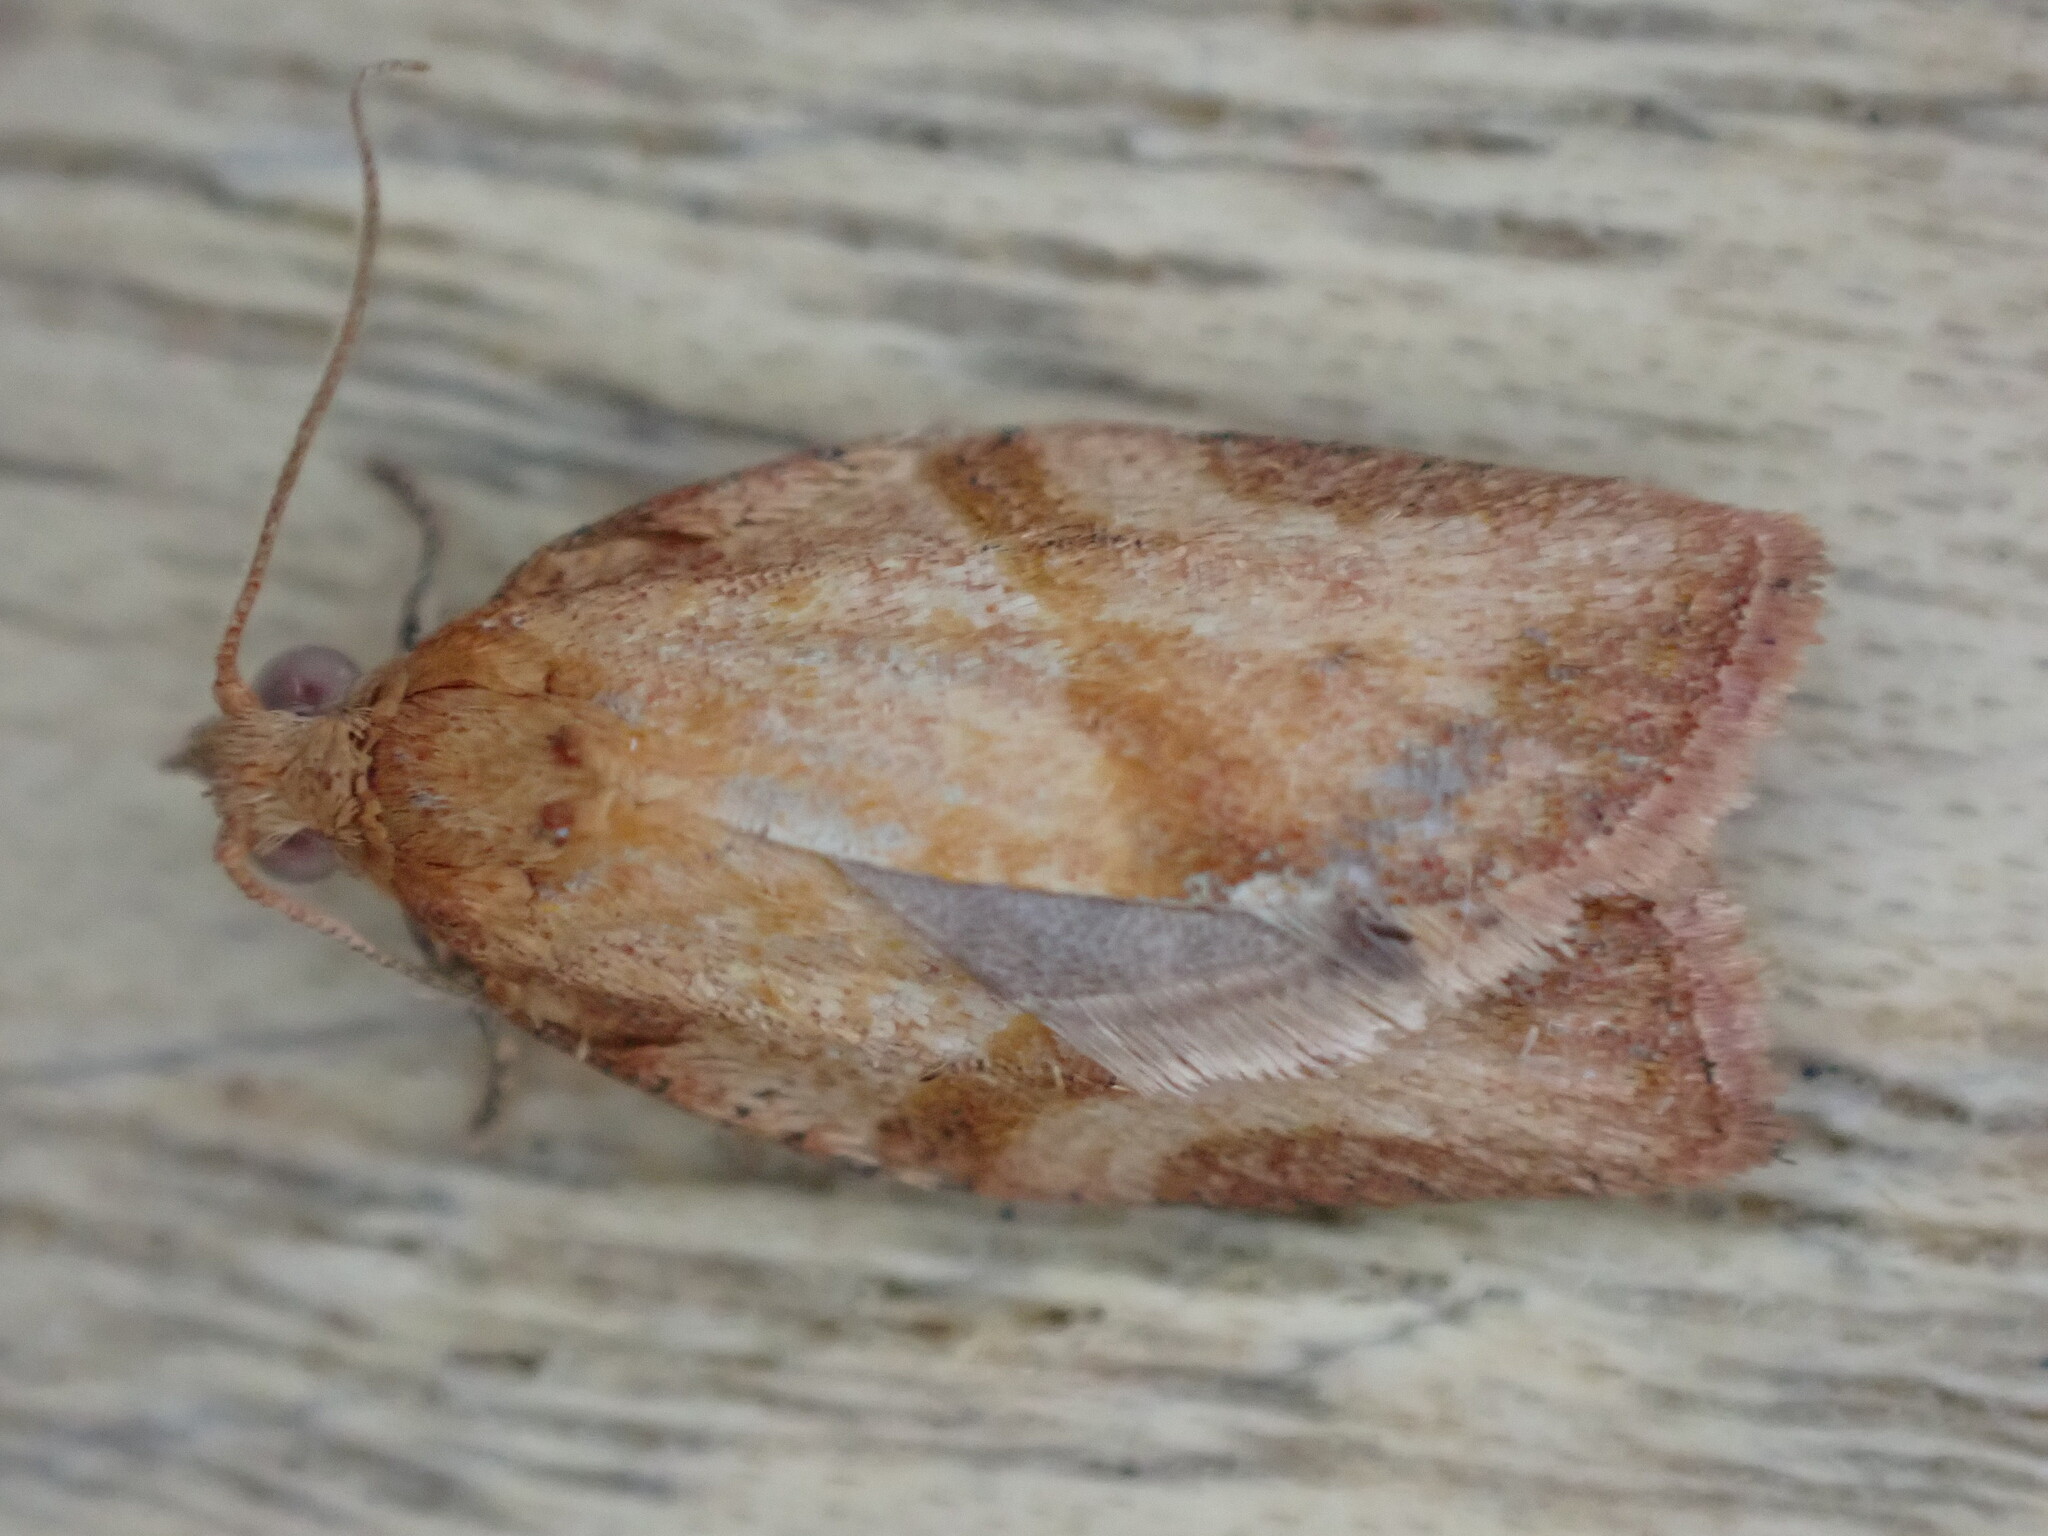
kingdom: Animalia
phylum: Arthropoda
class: Insecta
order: Lepidoptera
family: Tortricidae
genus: Epiphyas
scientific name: Epiphyas postvittana
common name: Light brown apple moth
